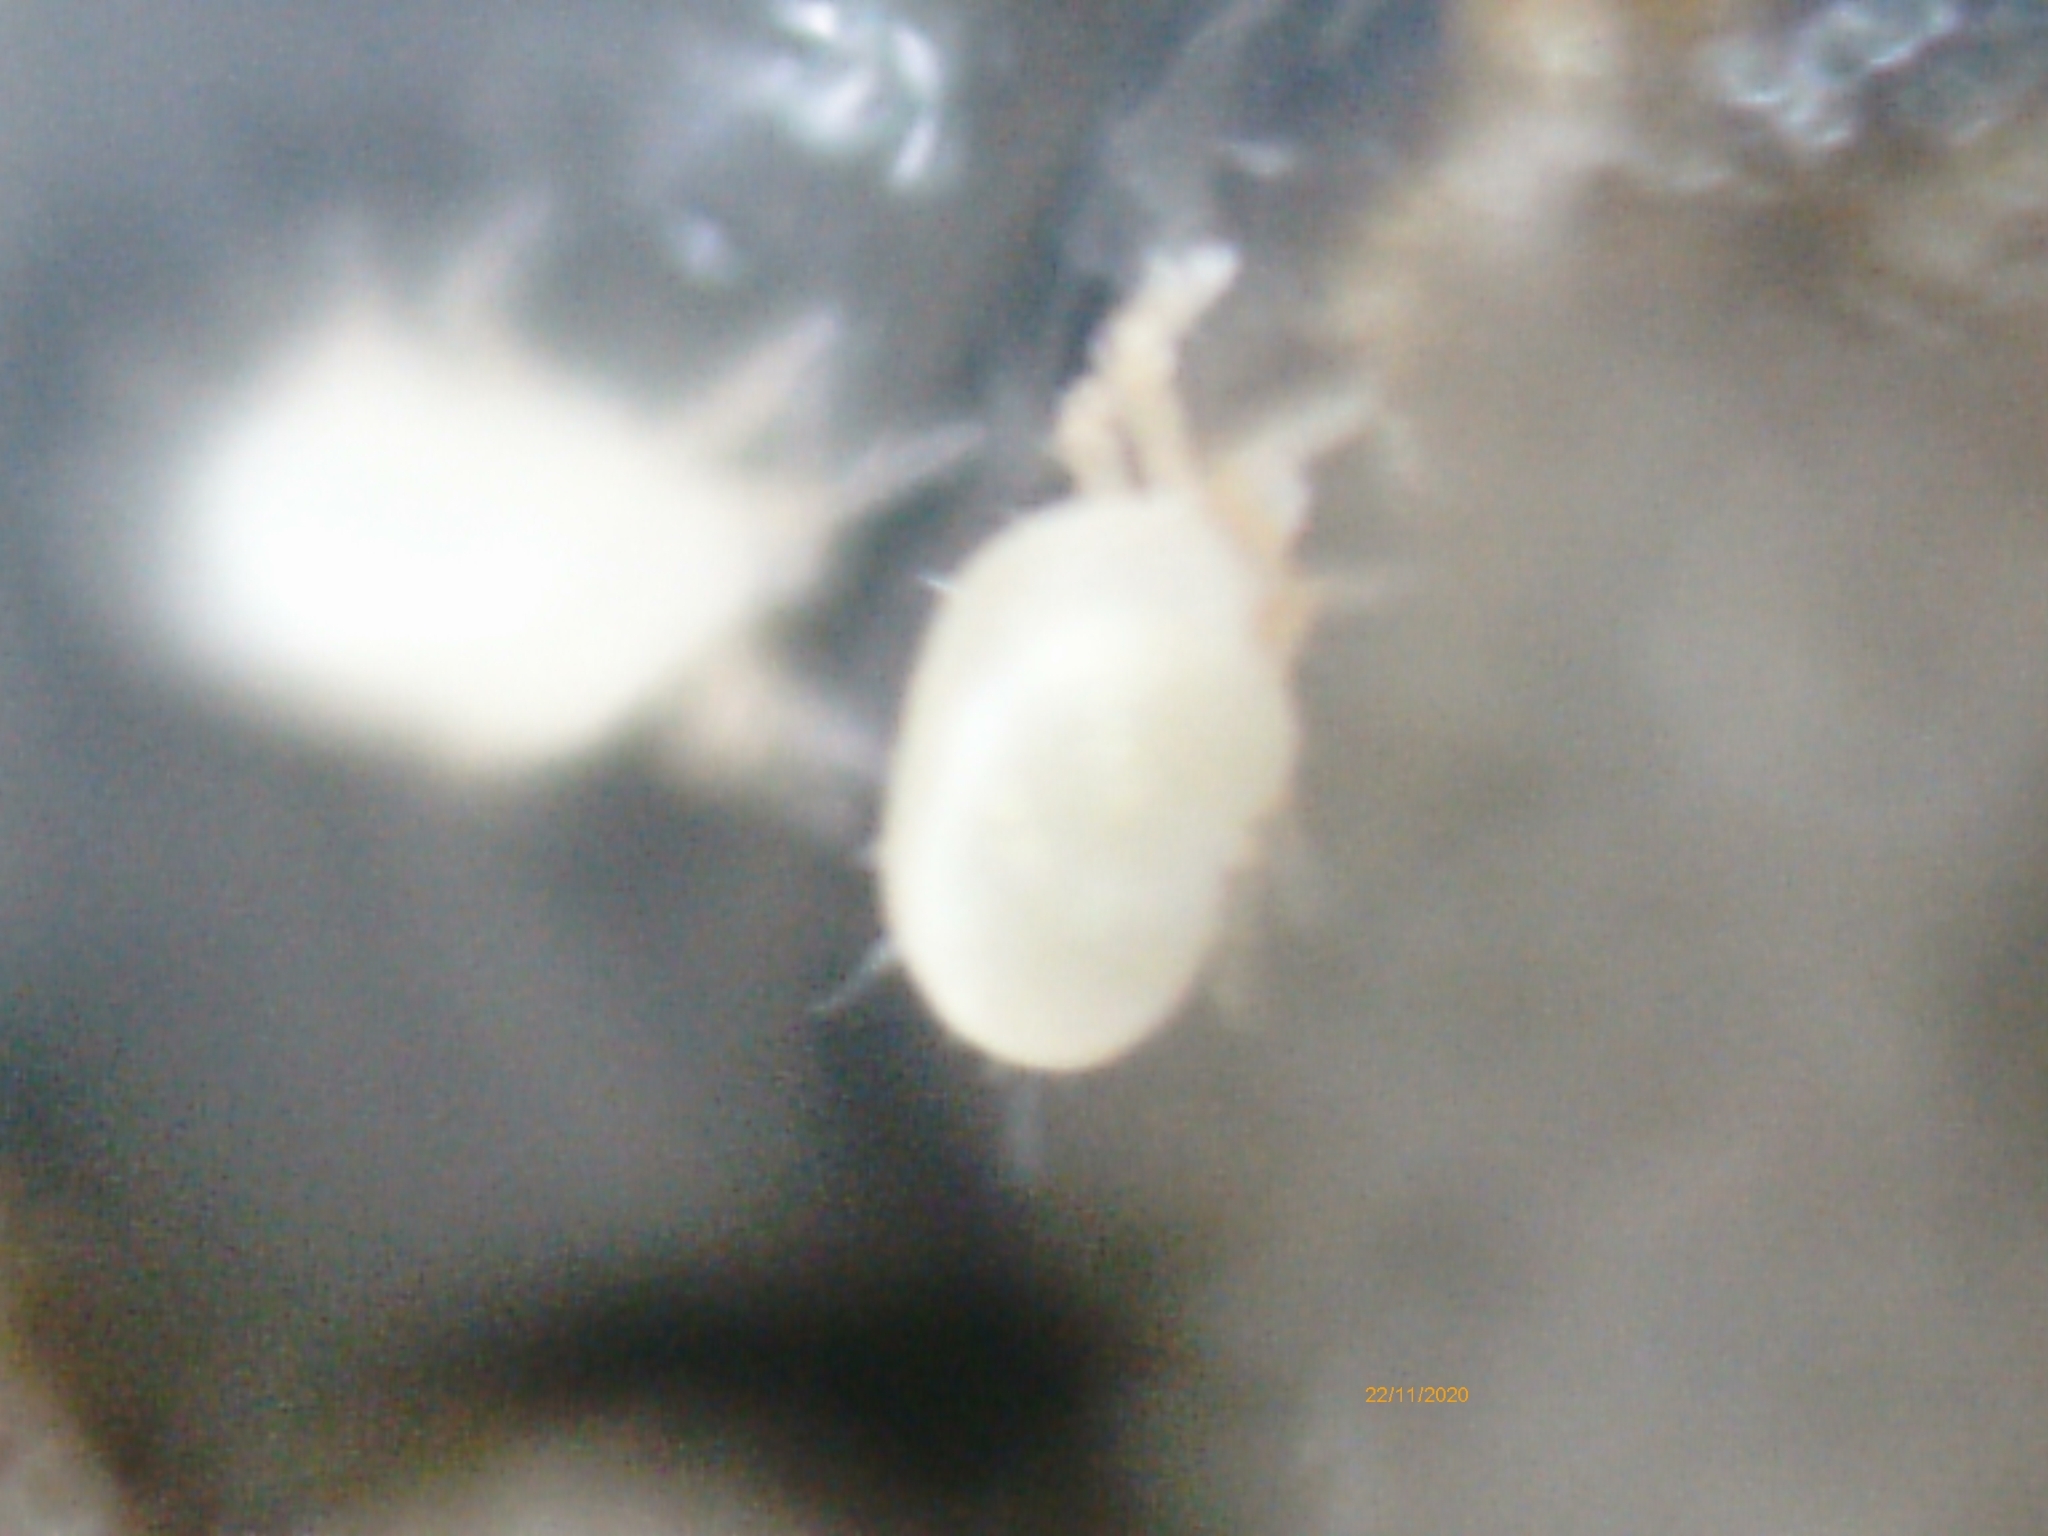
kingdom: Animalia
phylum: Arthropoda
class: Arachnida
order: Trombidiformes
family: Ereynetidae
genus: Riccardoella
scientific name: Riccardoella oudemansi
